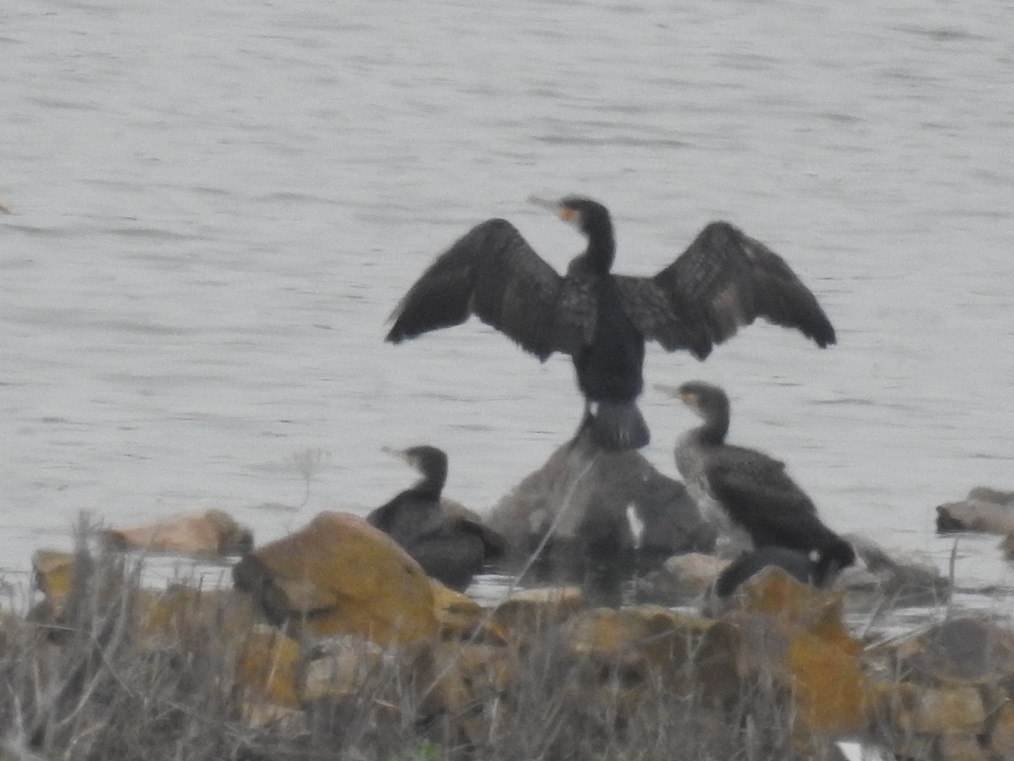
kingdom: Animalia
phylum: Chordata
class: Aves
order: Suliformes
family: Phalacrocoracidae
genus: Phalacrocorax
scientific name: Phalacrocorax carbo
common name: Great cormorant
